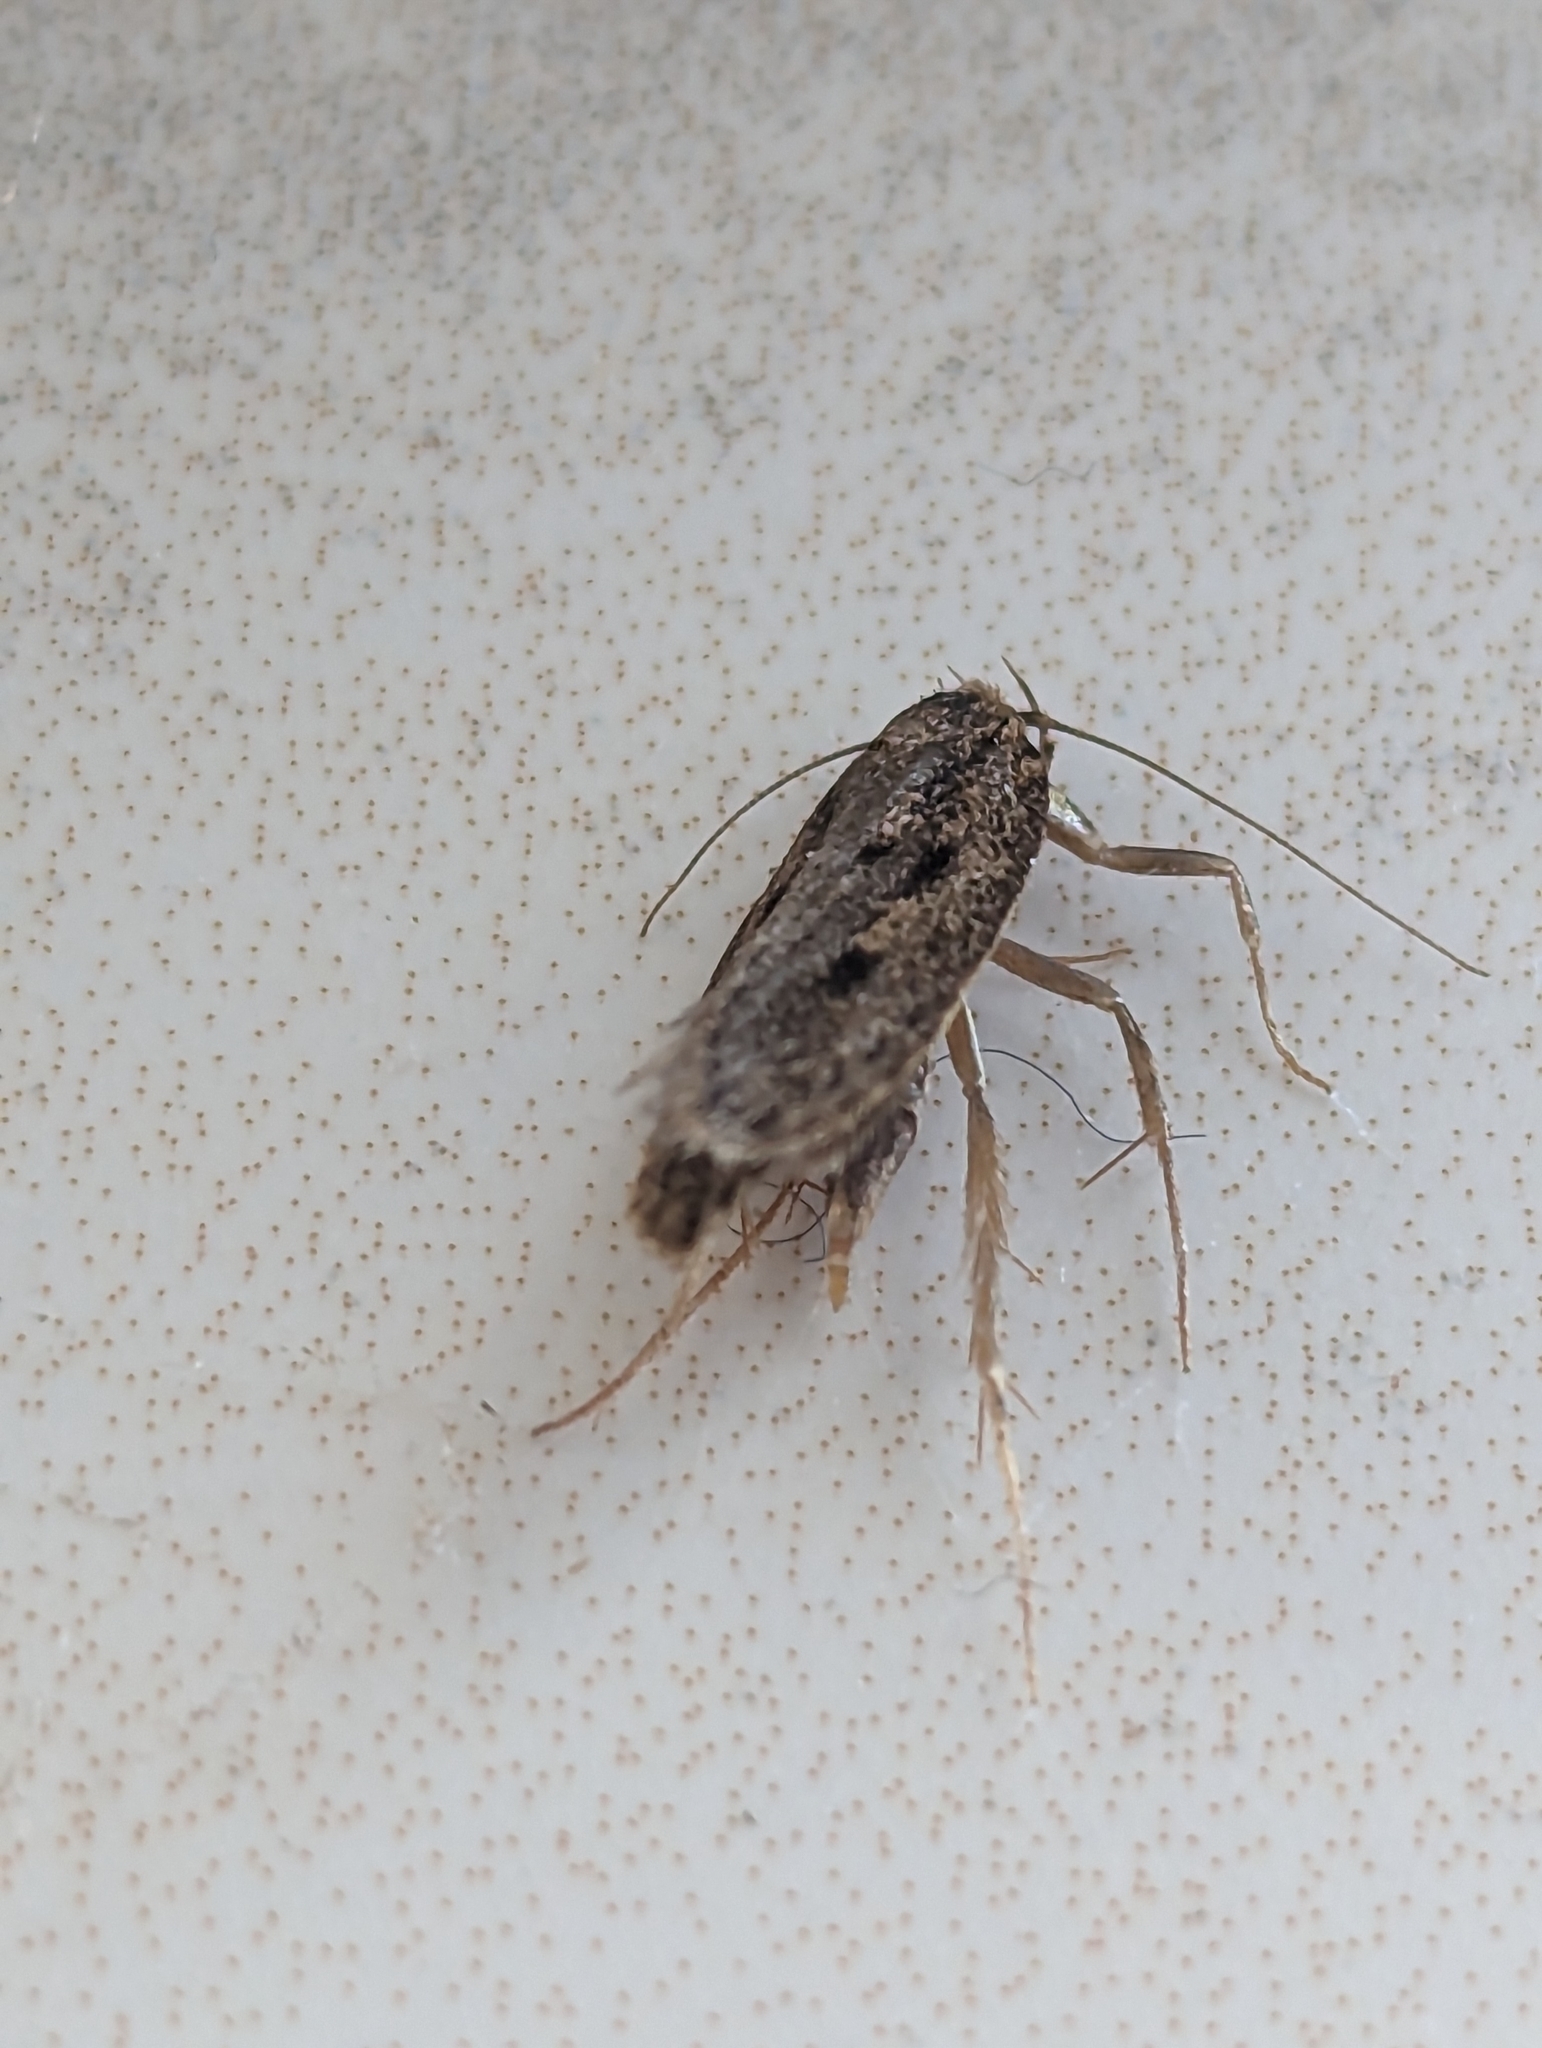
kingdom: Animalia
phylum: Arthropoda
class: Insecta
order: Lepidoptera
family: Oecophoridae
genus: Hofmannophila
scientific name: Hofmannophila pseudospretella
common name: Brown house moth
